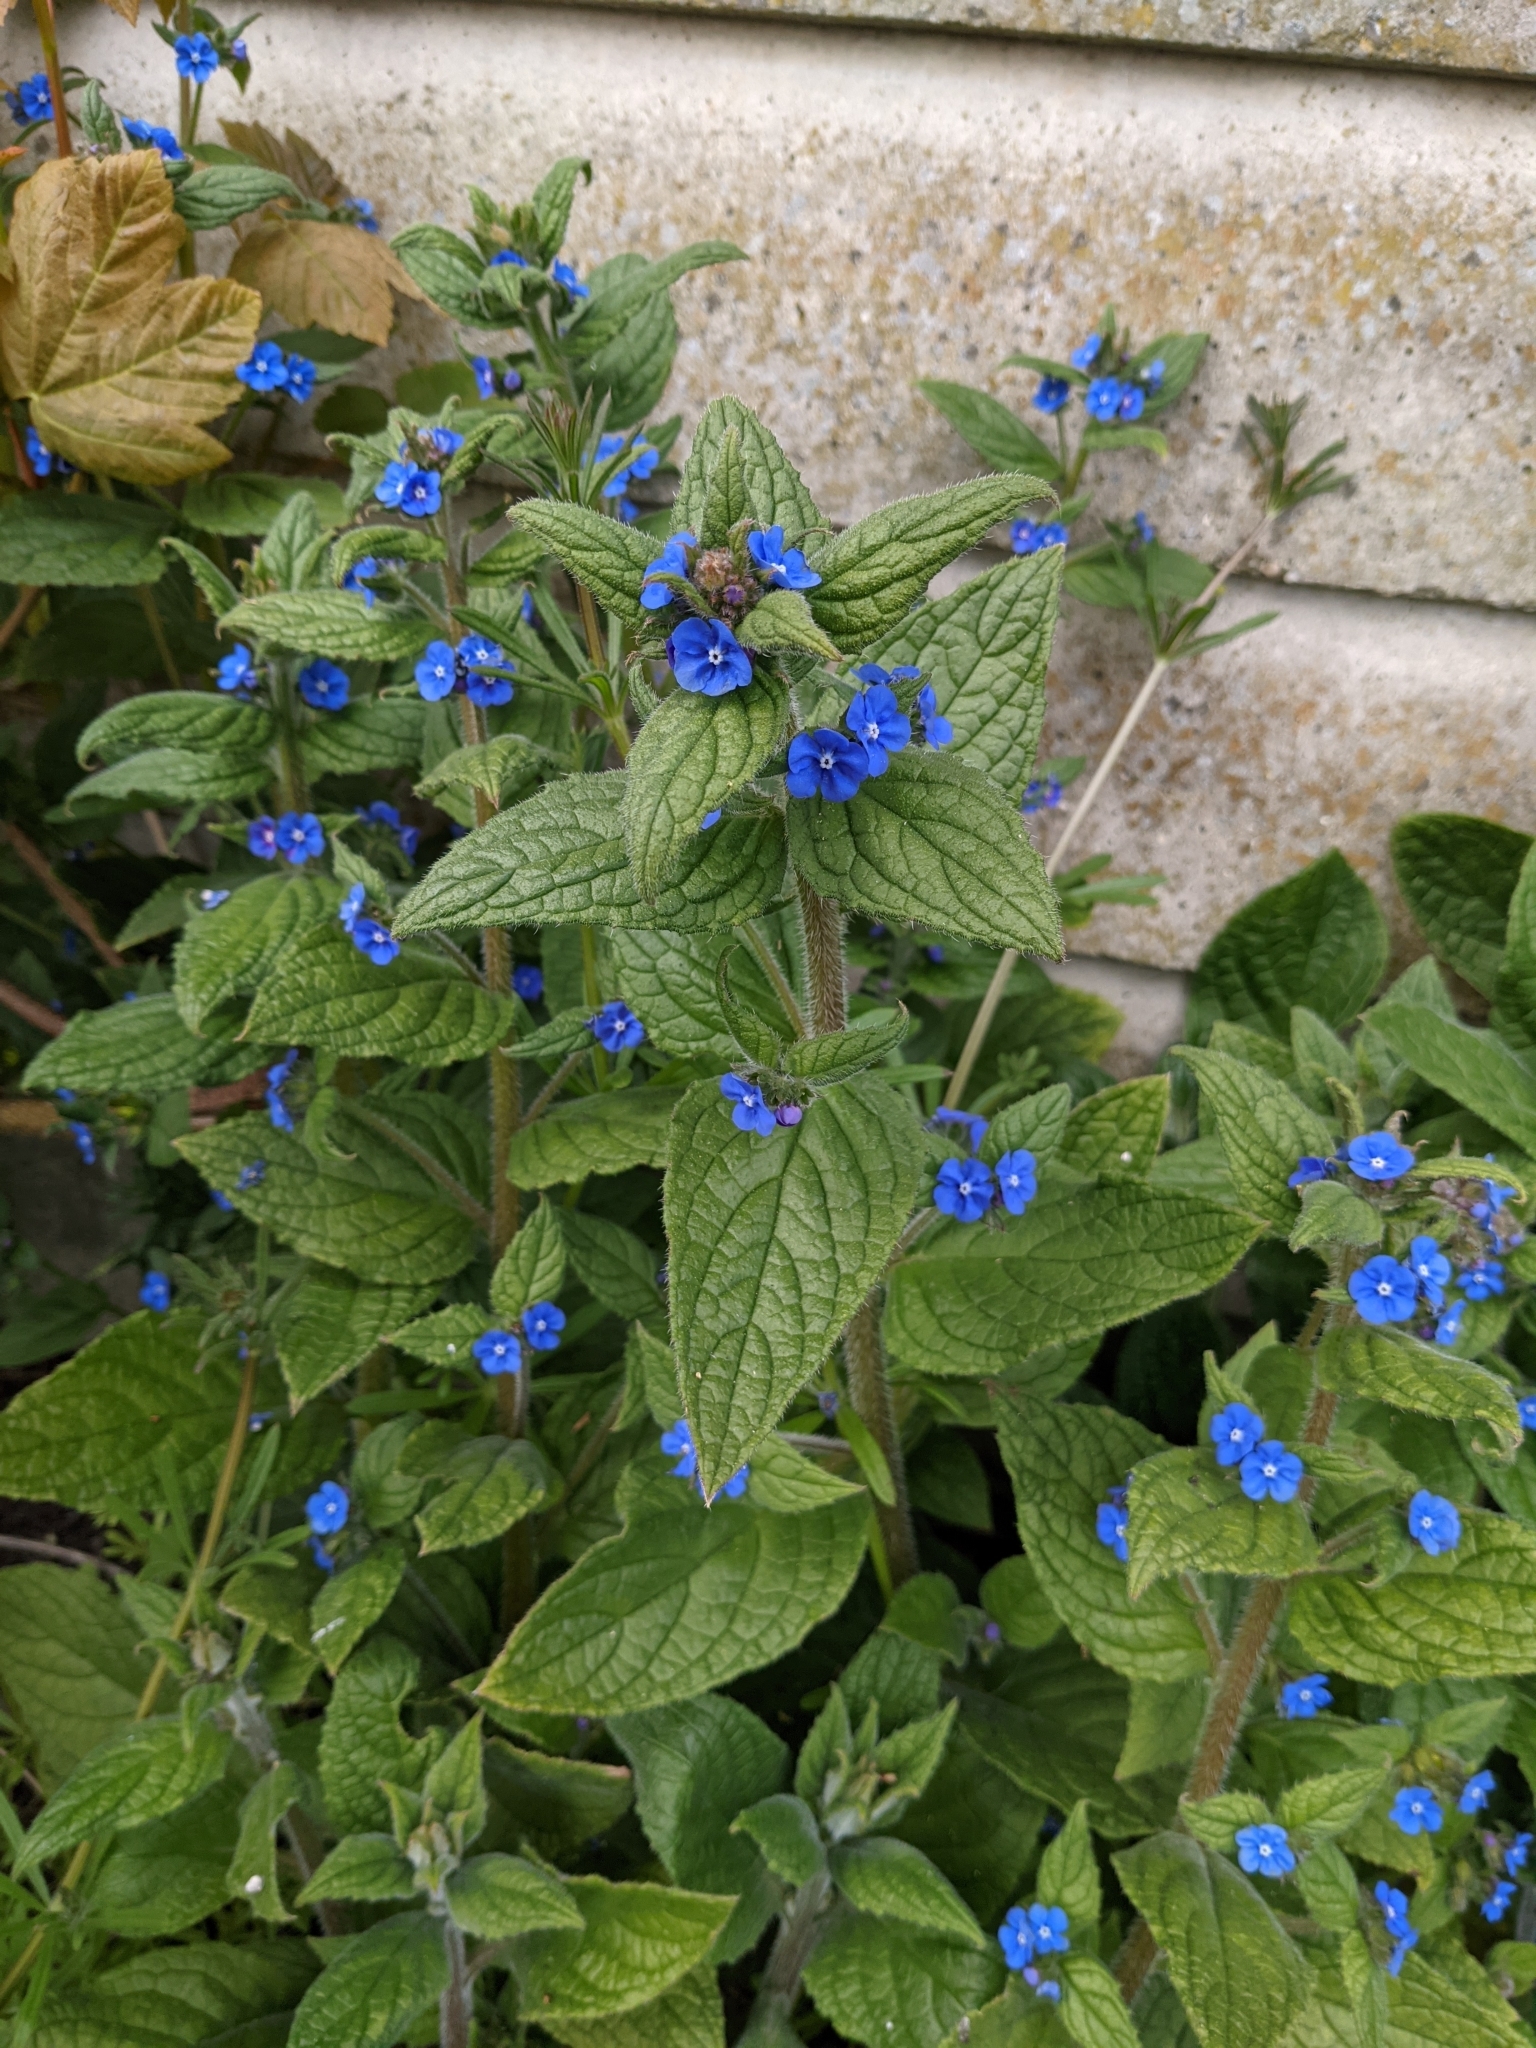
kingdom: Plantae
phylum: Tracheophyta
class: Magnoliopsida
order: Boraginales
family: Boraginaceae
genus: Pentaglottis
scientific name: Pentaglottis sempervirens
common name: Green alkanet
